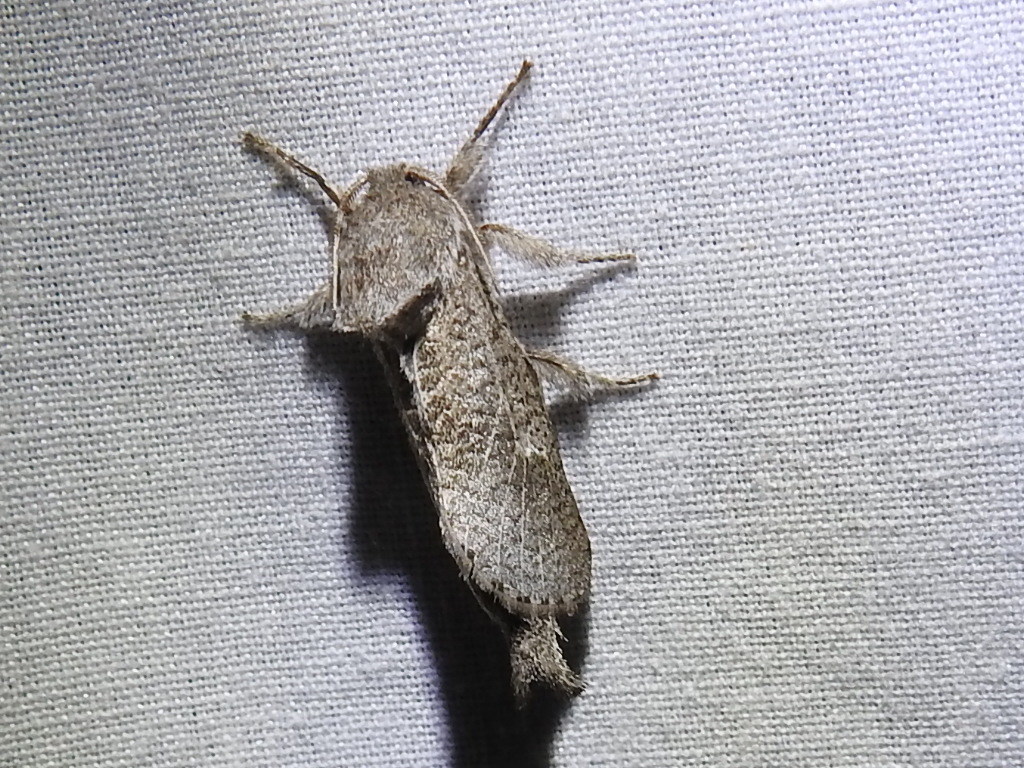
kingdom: Animalia
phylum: Arthropoda
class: Insecta
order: Lepidoptera
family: Cossidae
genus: Givira
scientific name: Givira anna
